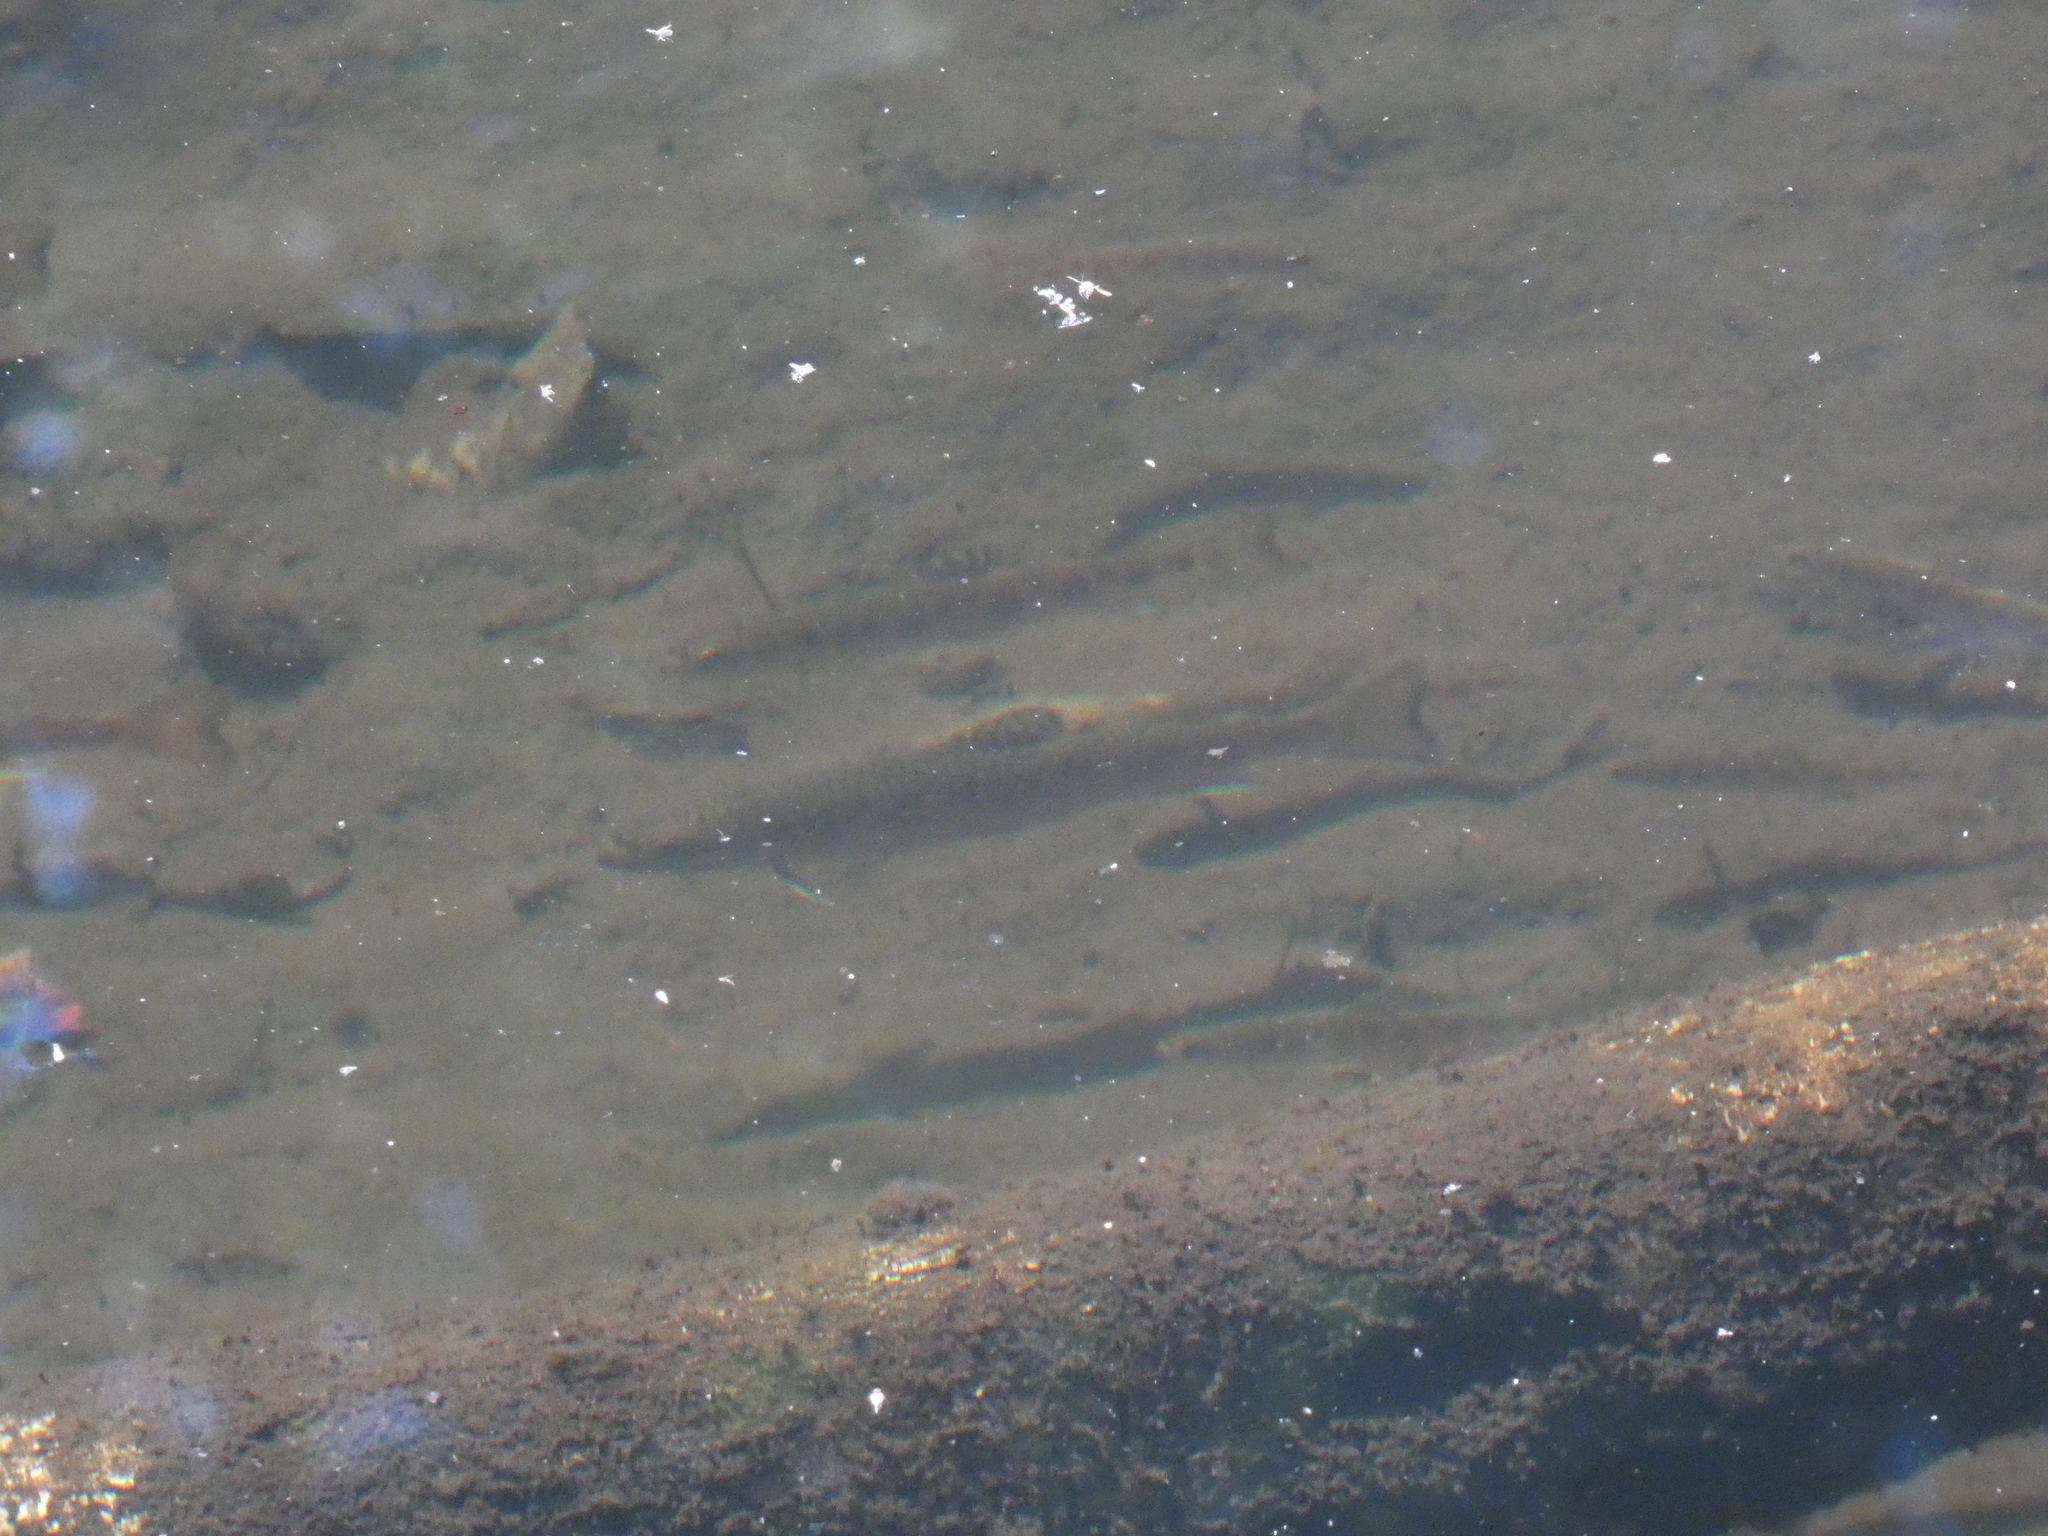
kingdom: Animalia
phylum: Chordata
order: Salmoniformes
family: Salmonidae
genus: Salvelinus
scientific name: Salvelinus fontinalis
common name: Brook trout
